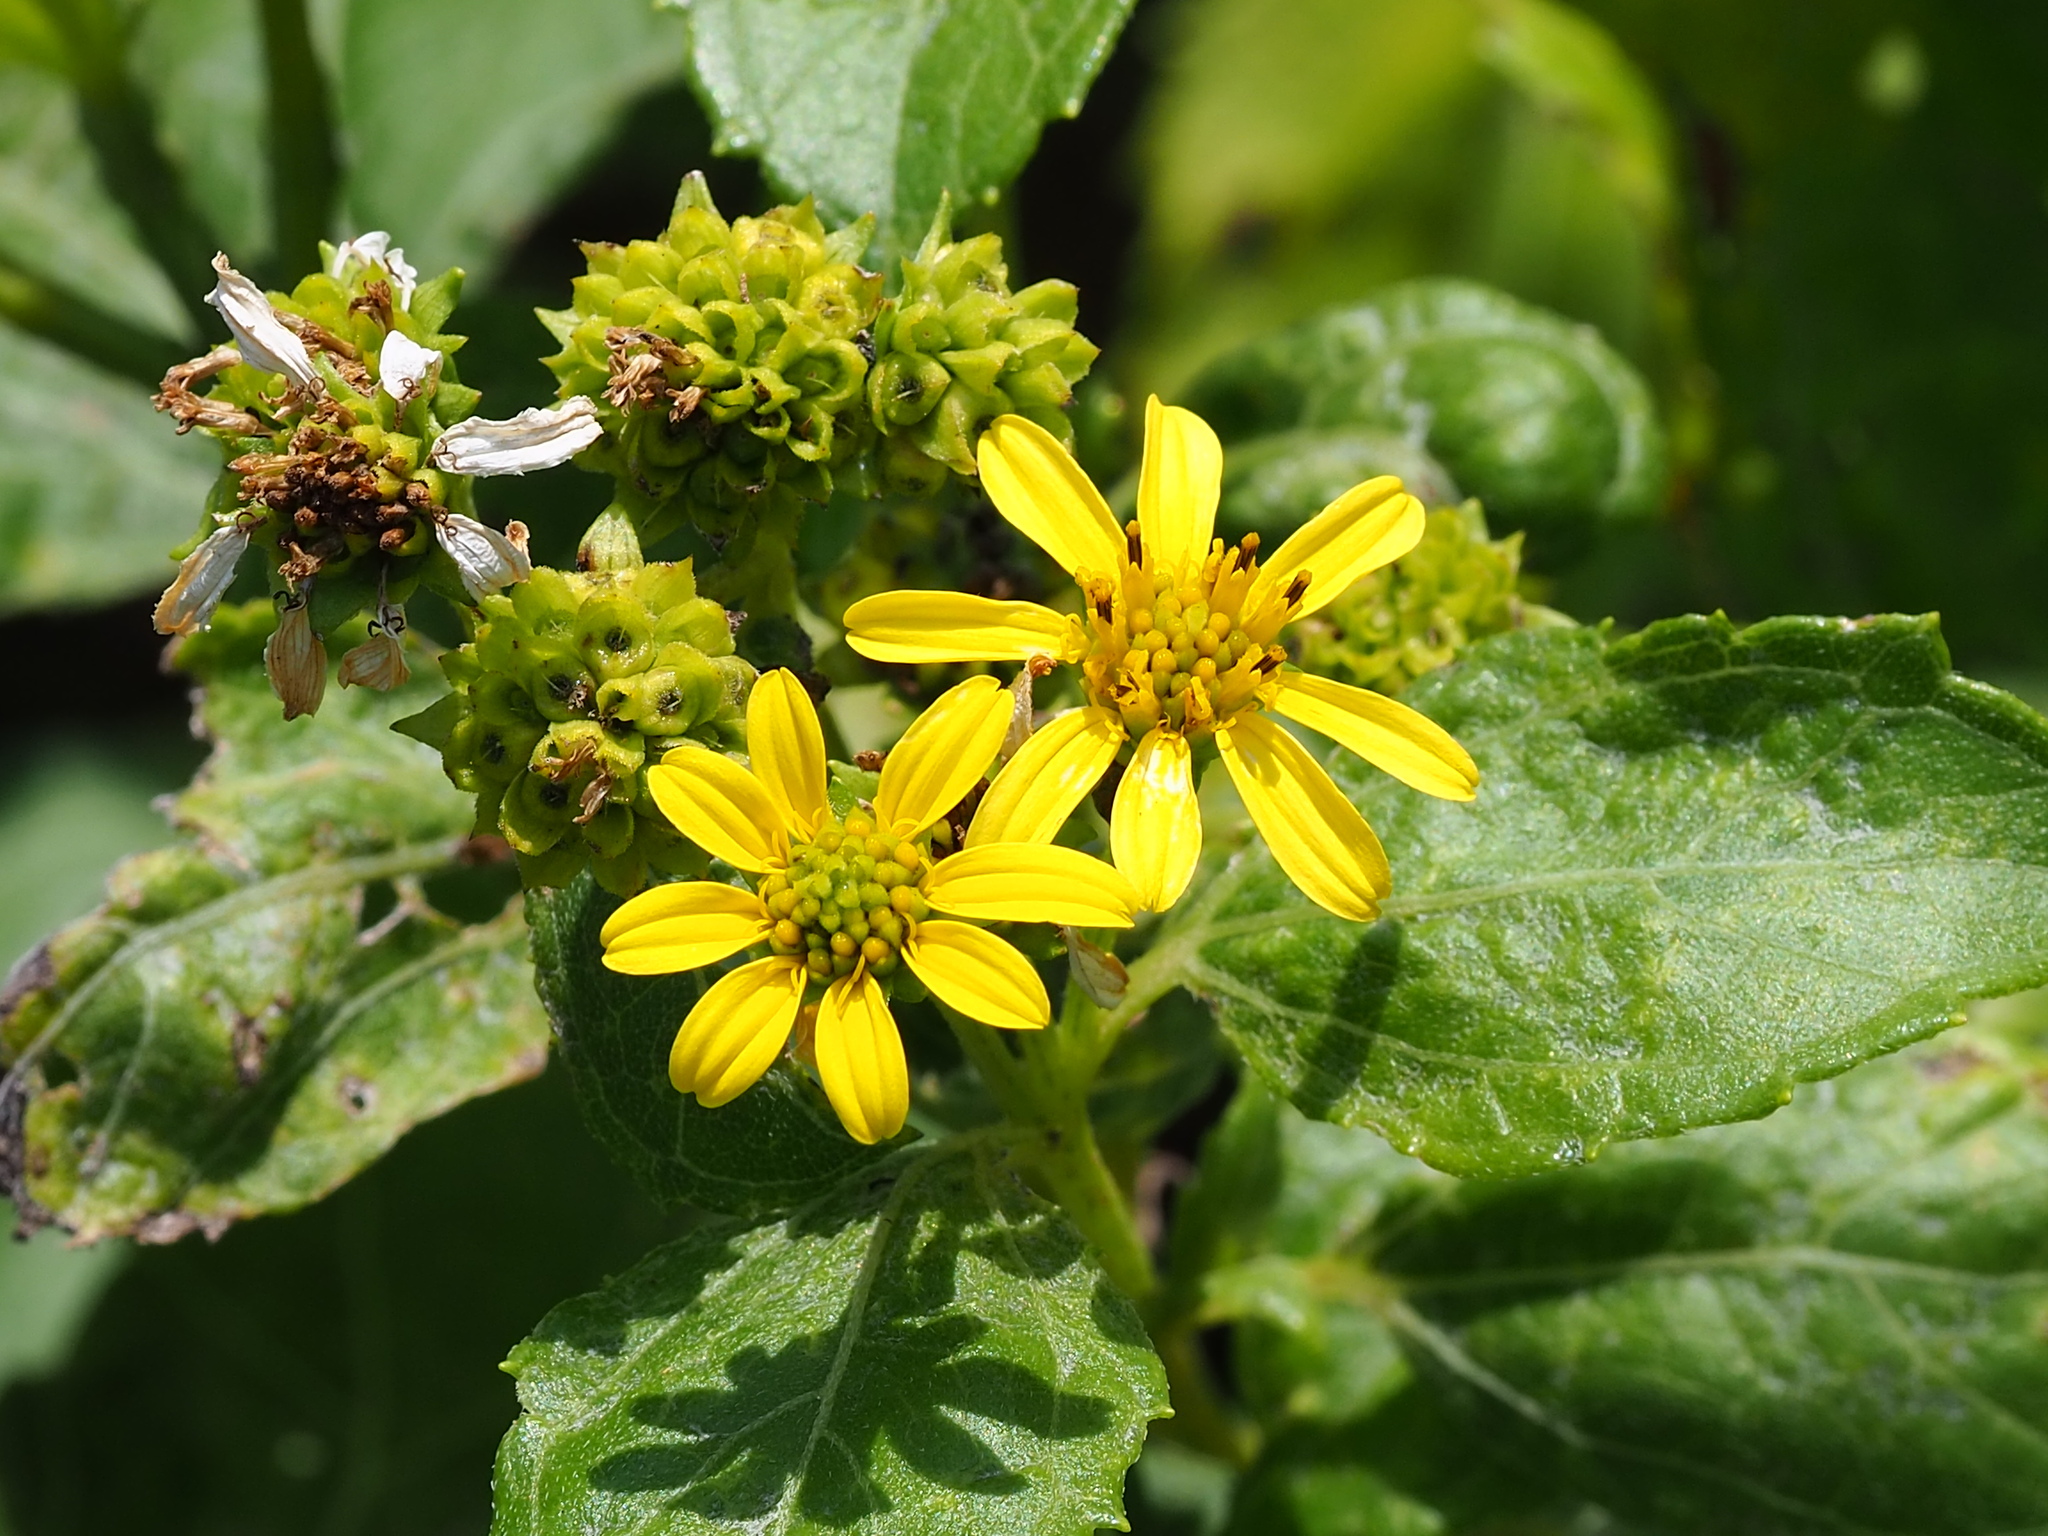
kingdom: Plantae
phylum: Tracheophyta
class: Magnoliopsida
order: Asterales
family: Asteraceae
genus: Wollastonia
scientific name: Wollastonia biflora
